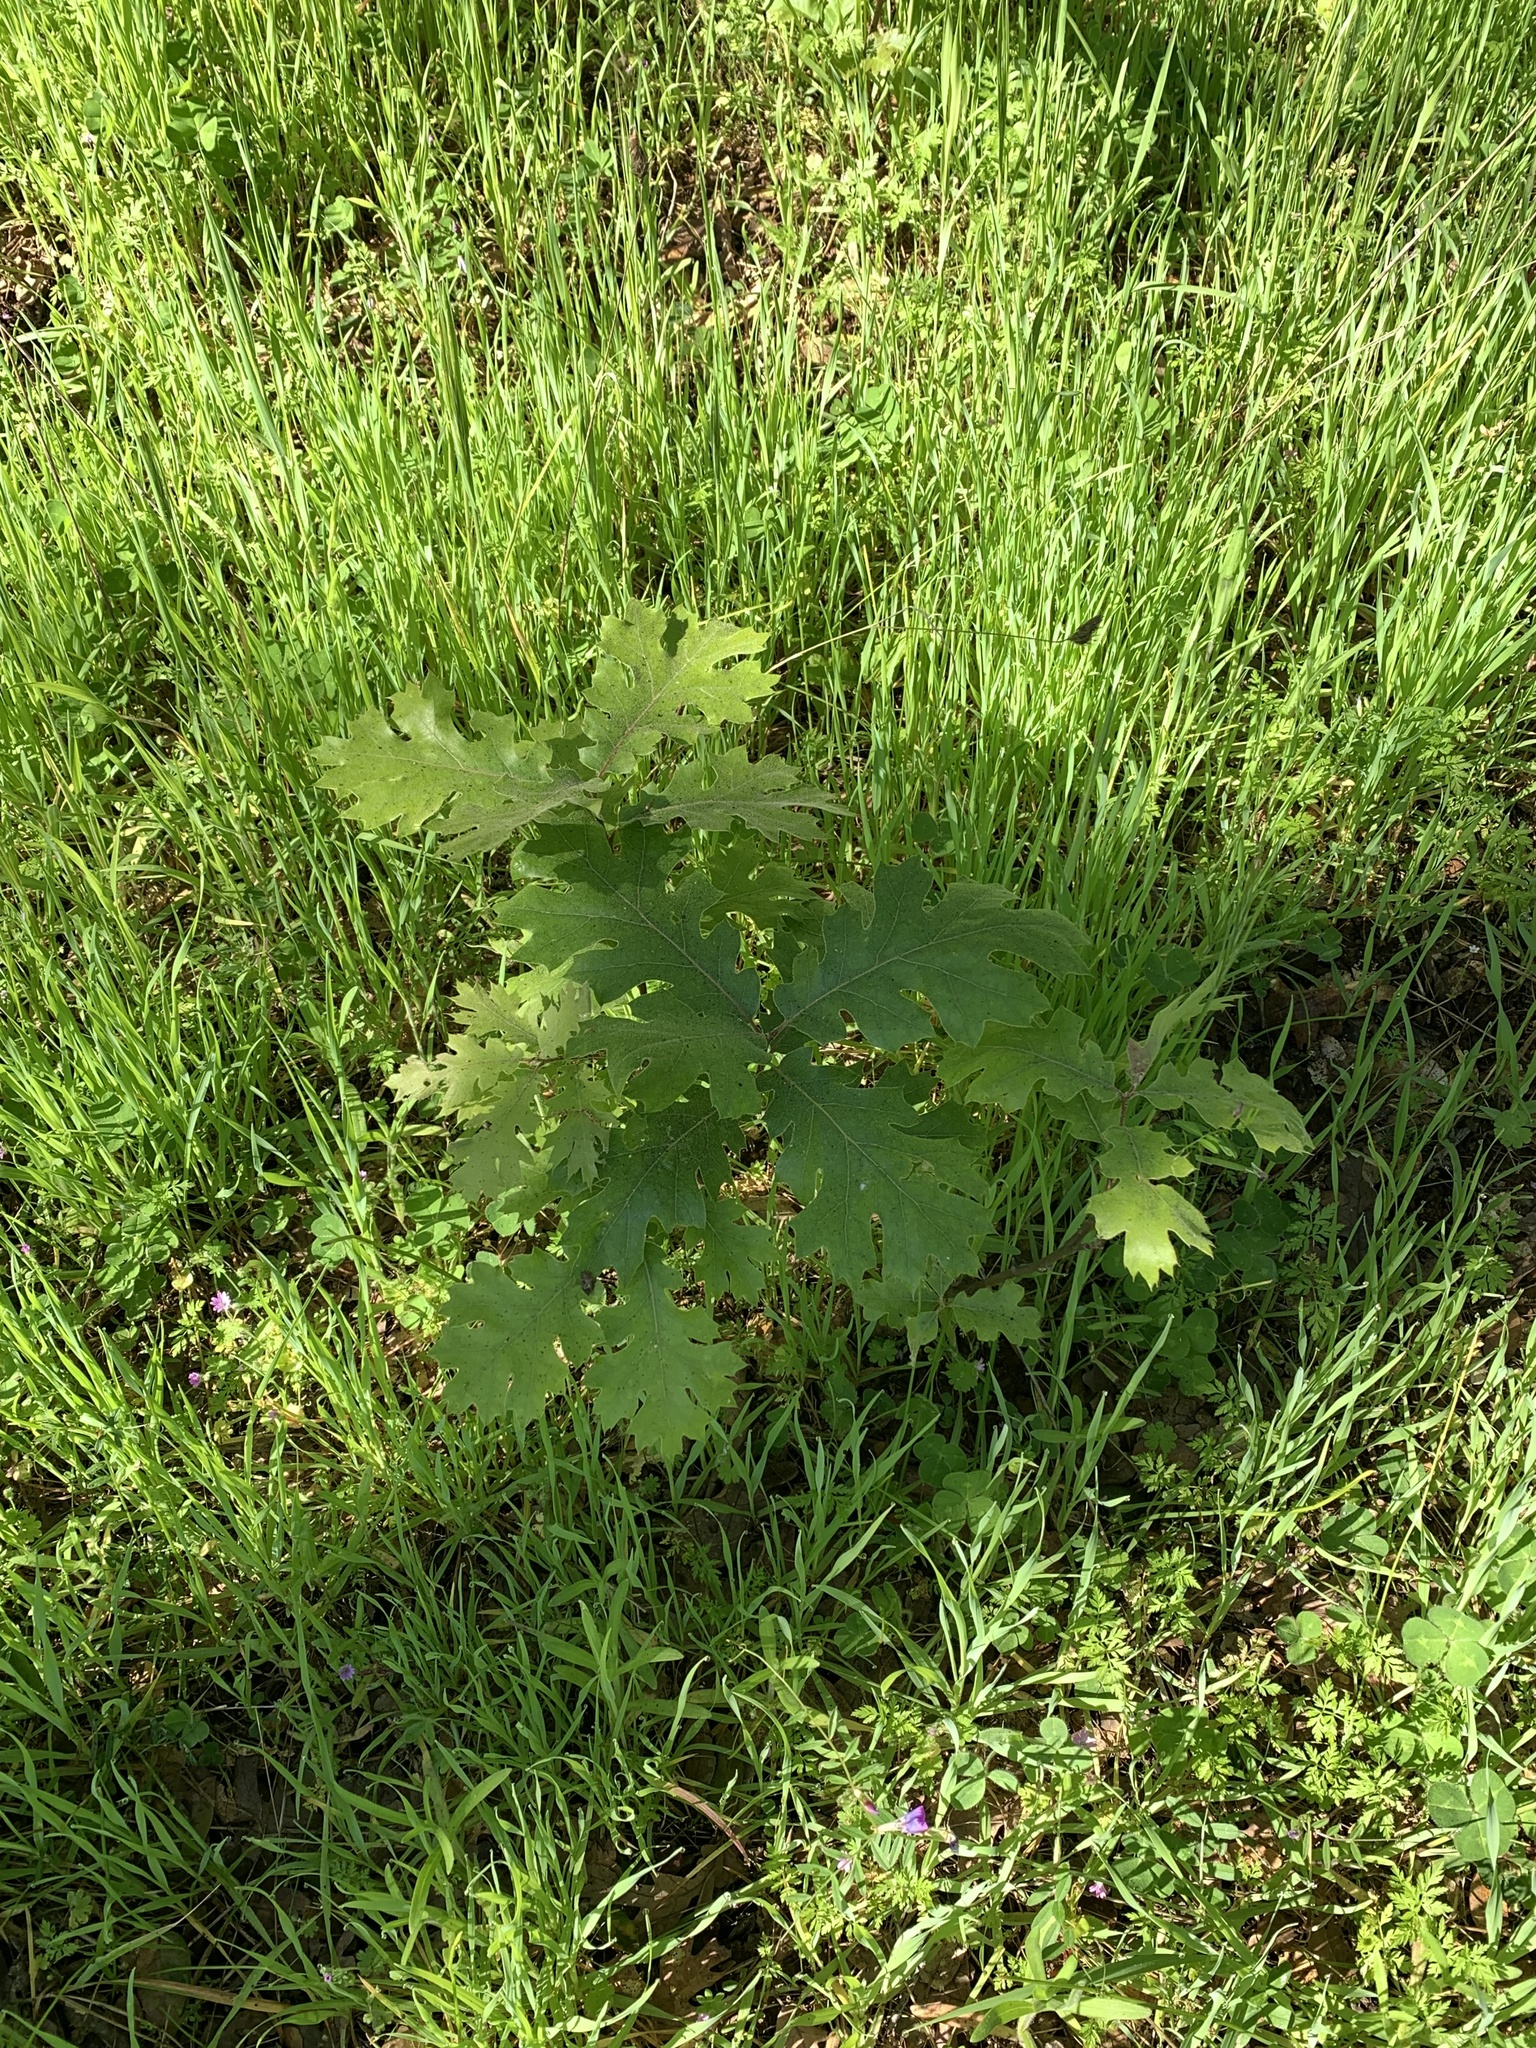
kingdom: Plantae
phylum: Tracheophyta
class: Magnoliopsida
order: Fagales
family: Fagaceae
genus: Quercus
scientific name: Quercus kelloggii
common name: California black oak
